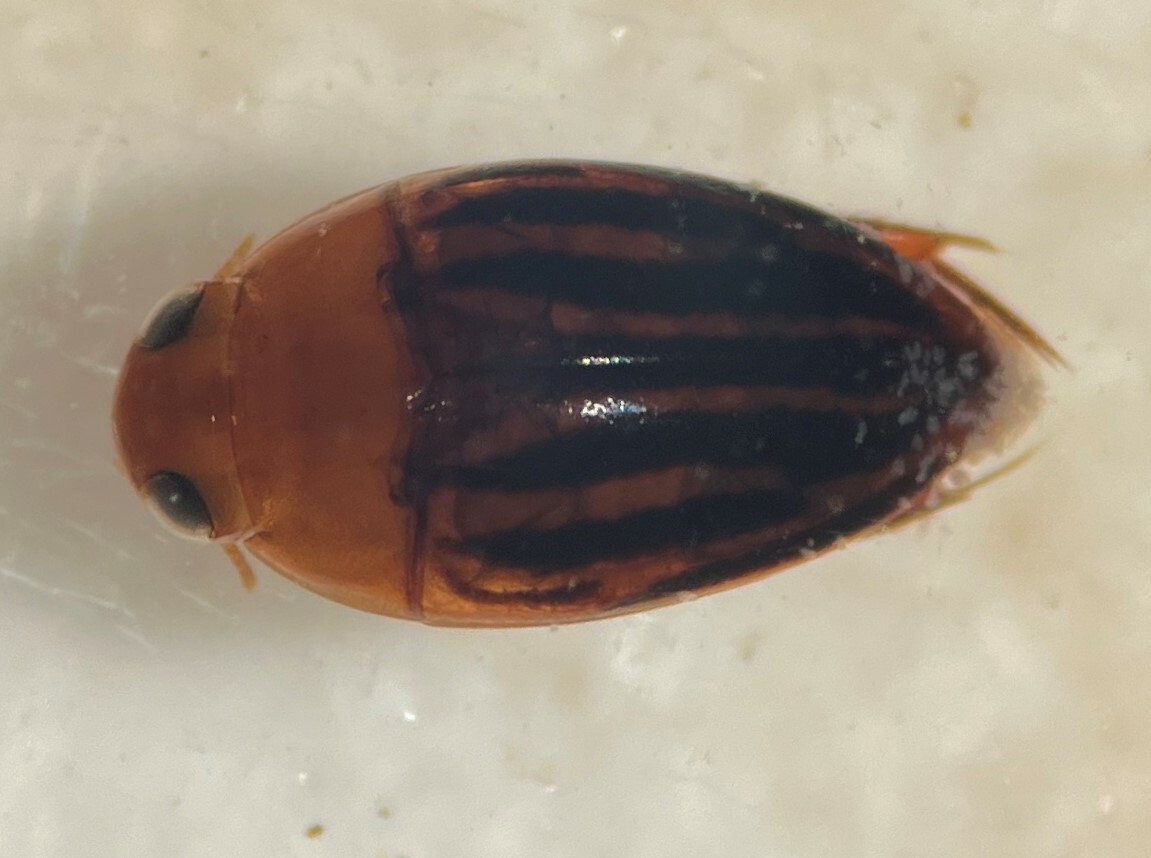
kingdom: Animalia
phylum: Arthropoda
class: Insecta
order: Coleoptera
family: Noteridae
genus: Suphisellus
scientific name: Suphisellus lineatus
